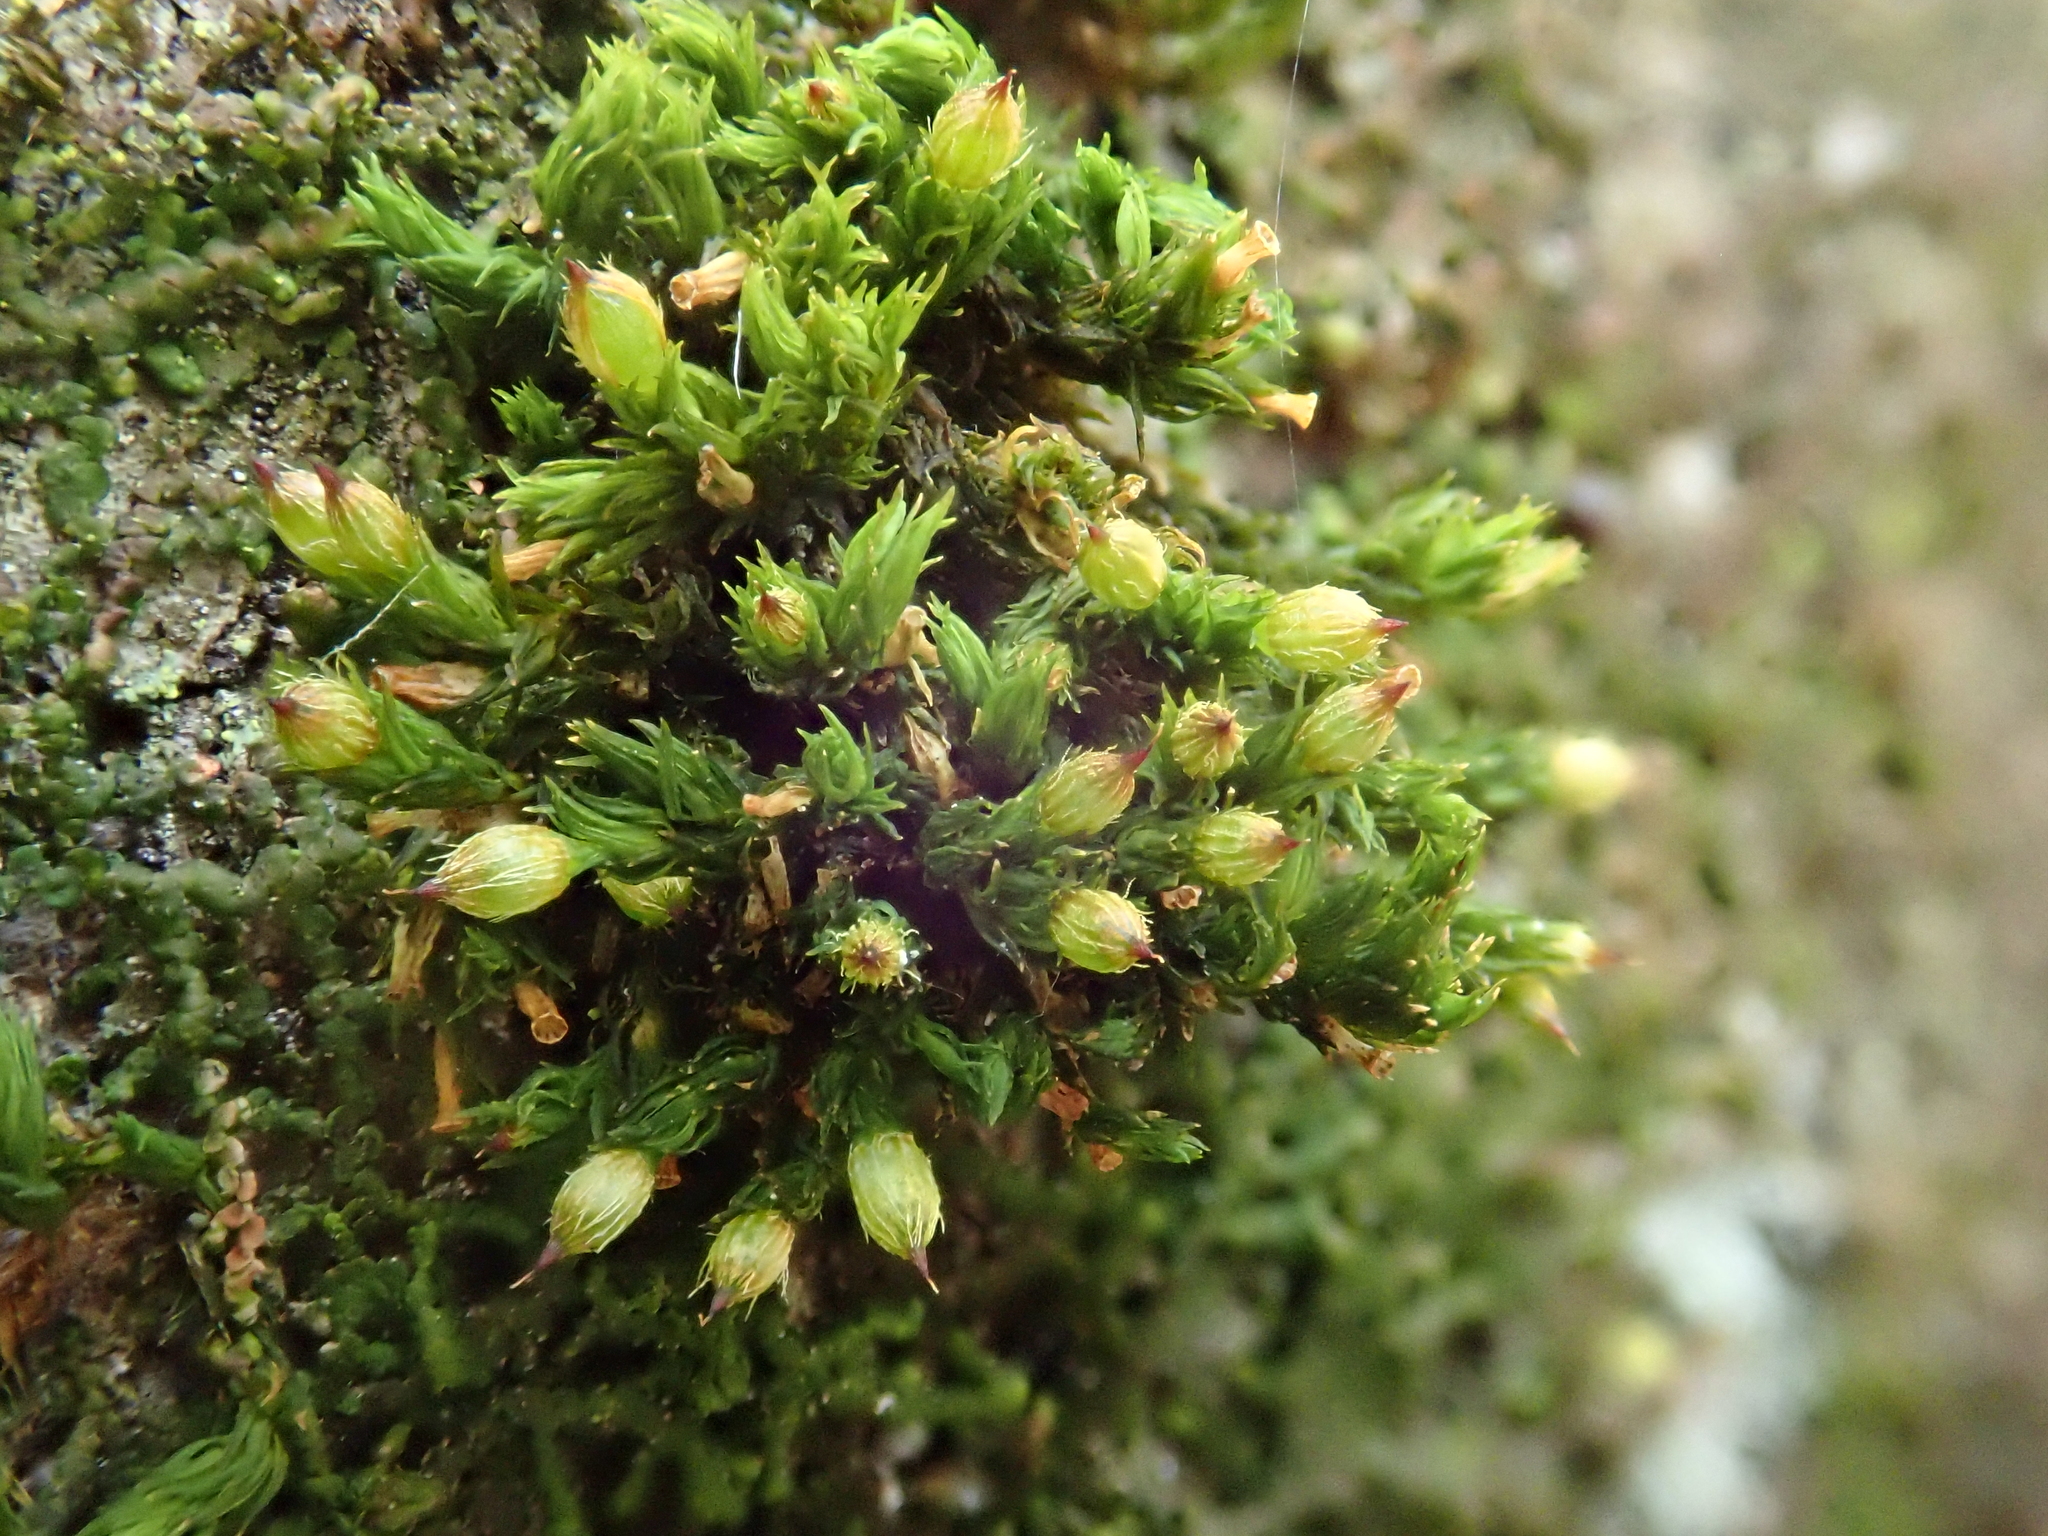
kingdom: Plantae
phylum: Bryophyta
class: Bryopsida
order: Orthotrichales
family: Orthotrichaceae
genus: Orthotrichum
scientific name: Orthotrichum patens
